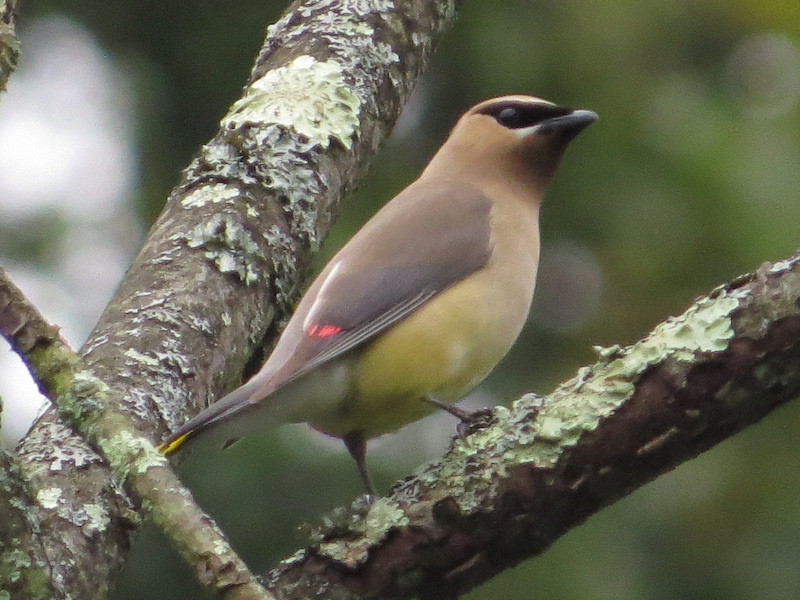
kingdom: Animalia
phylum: Chordata
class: Aves
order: Passeriformes
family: Bombycillidae
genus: Bombycilla
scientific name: Bombycilla cedrorum
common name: Cedar waxwing
